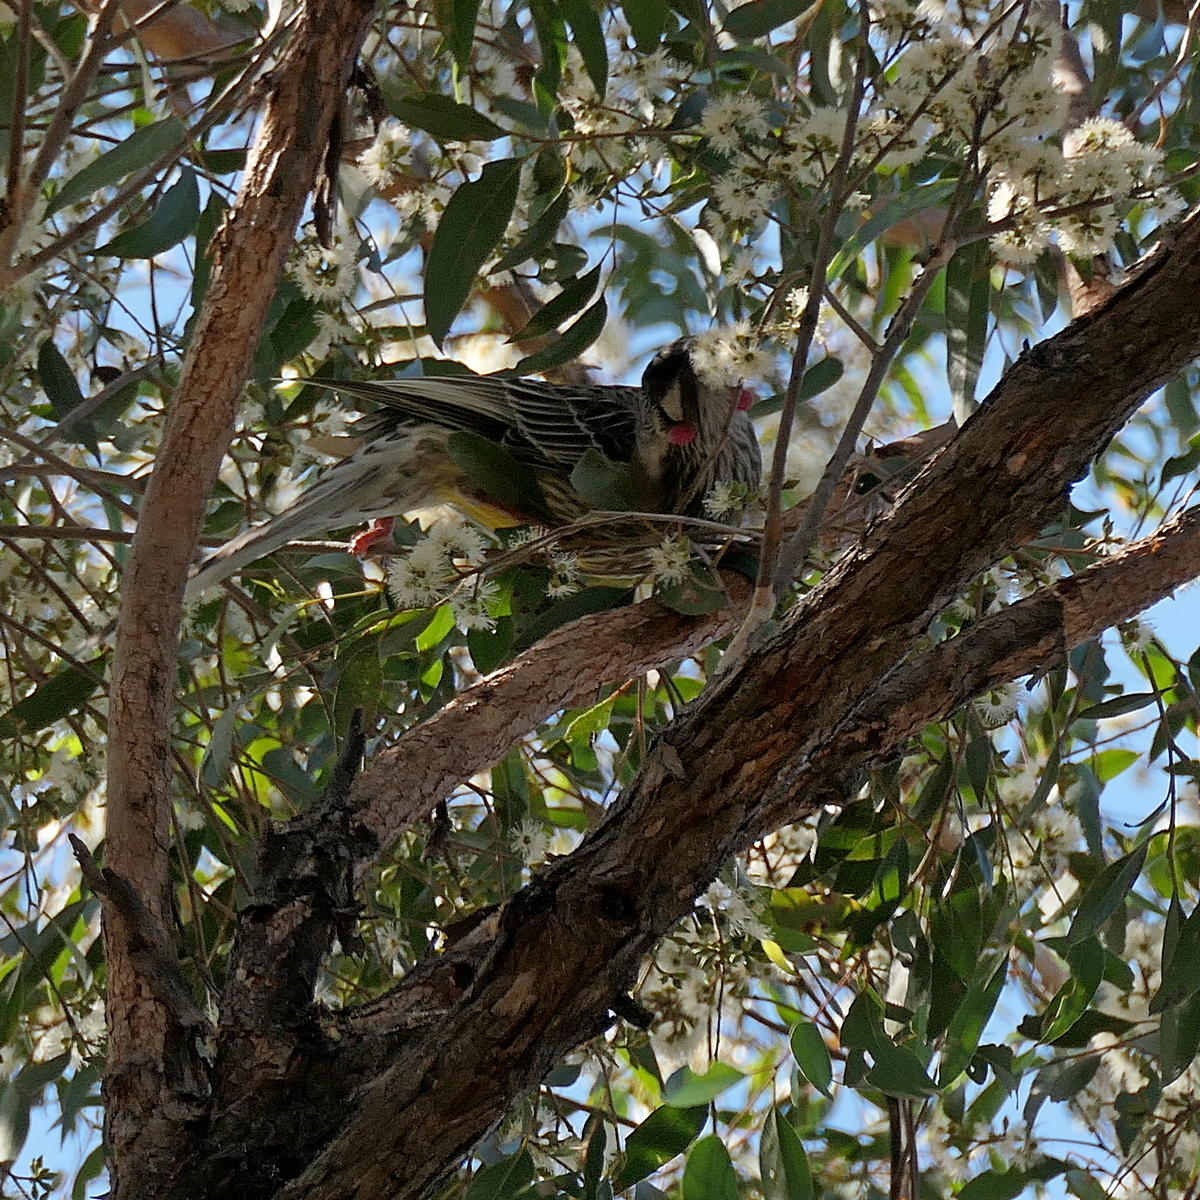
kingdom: Animalia
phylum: Chordata
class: Aves
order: Passeriformes
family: Meliphagidae
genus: Anthochaera
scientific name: Anthochaera carunculata
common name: Red wattlebird
